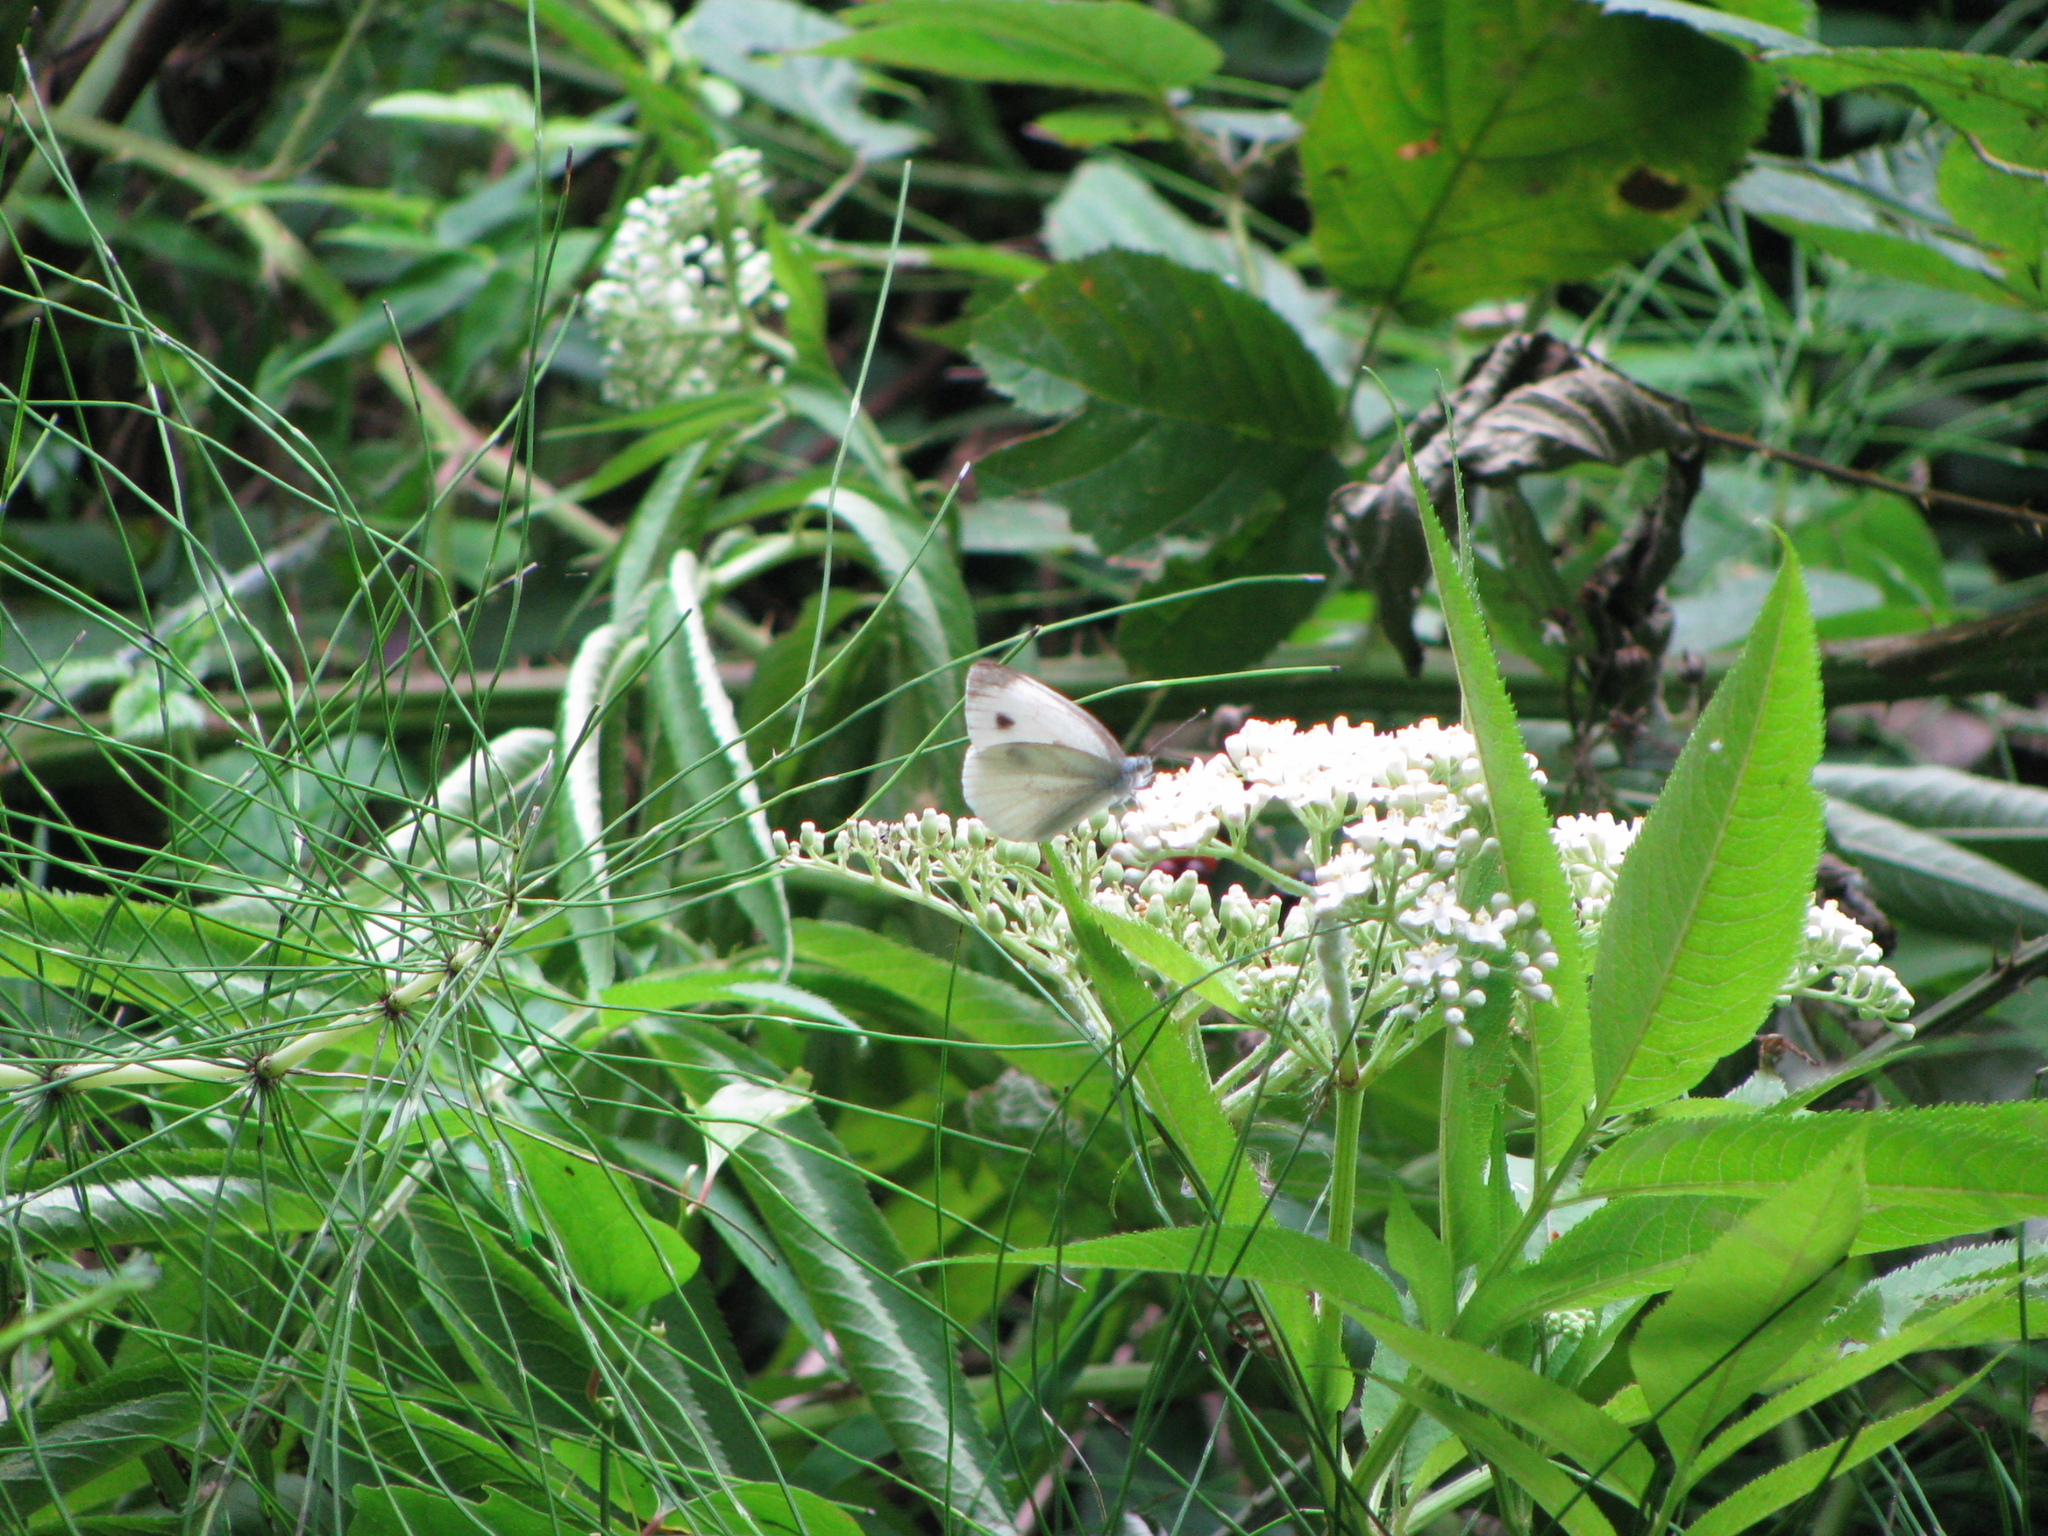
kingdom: Animalia
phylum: Arthropoda
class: Insecta
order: Lepidoptera
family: Pieridae
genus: Pieris
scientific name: Pieris napi
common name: Green-veined white
